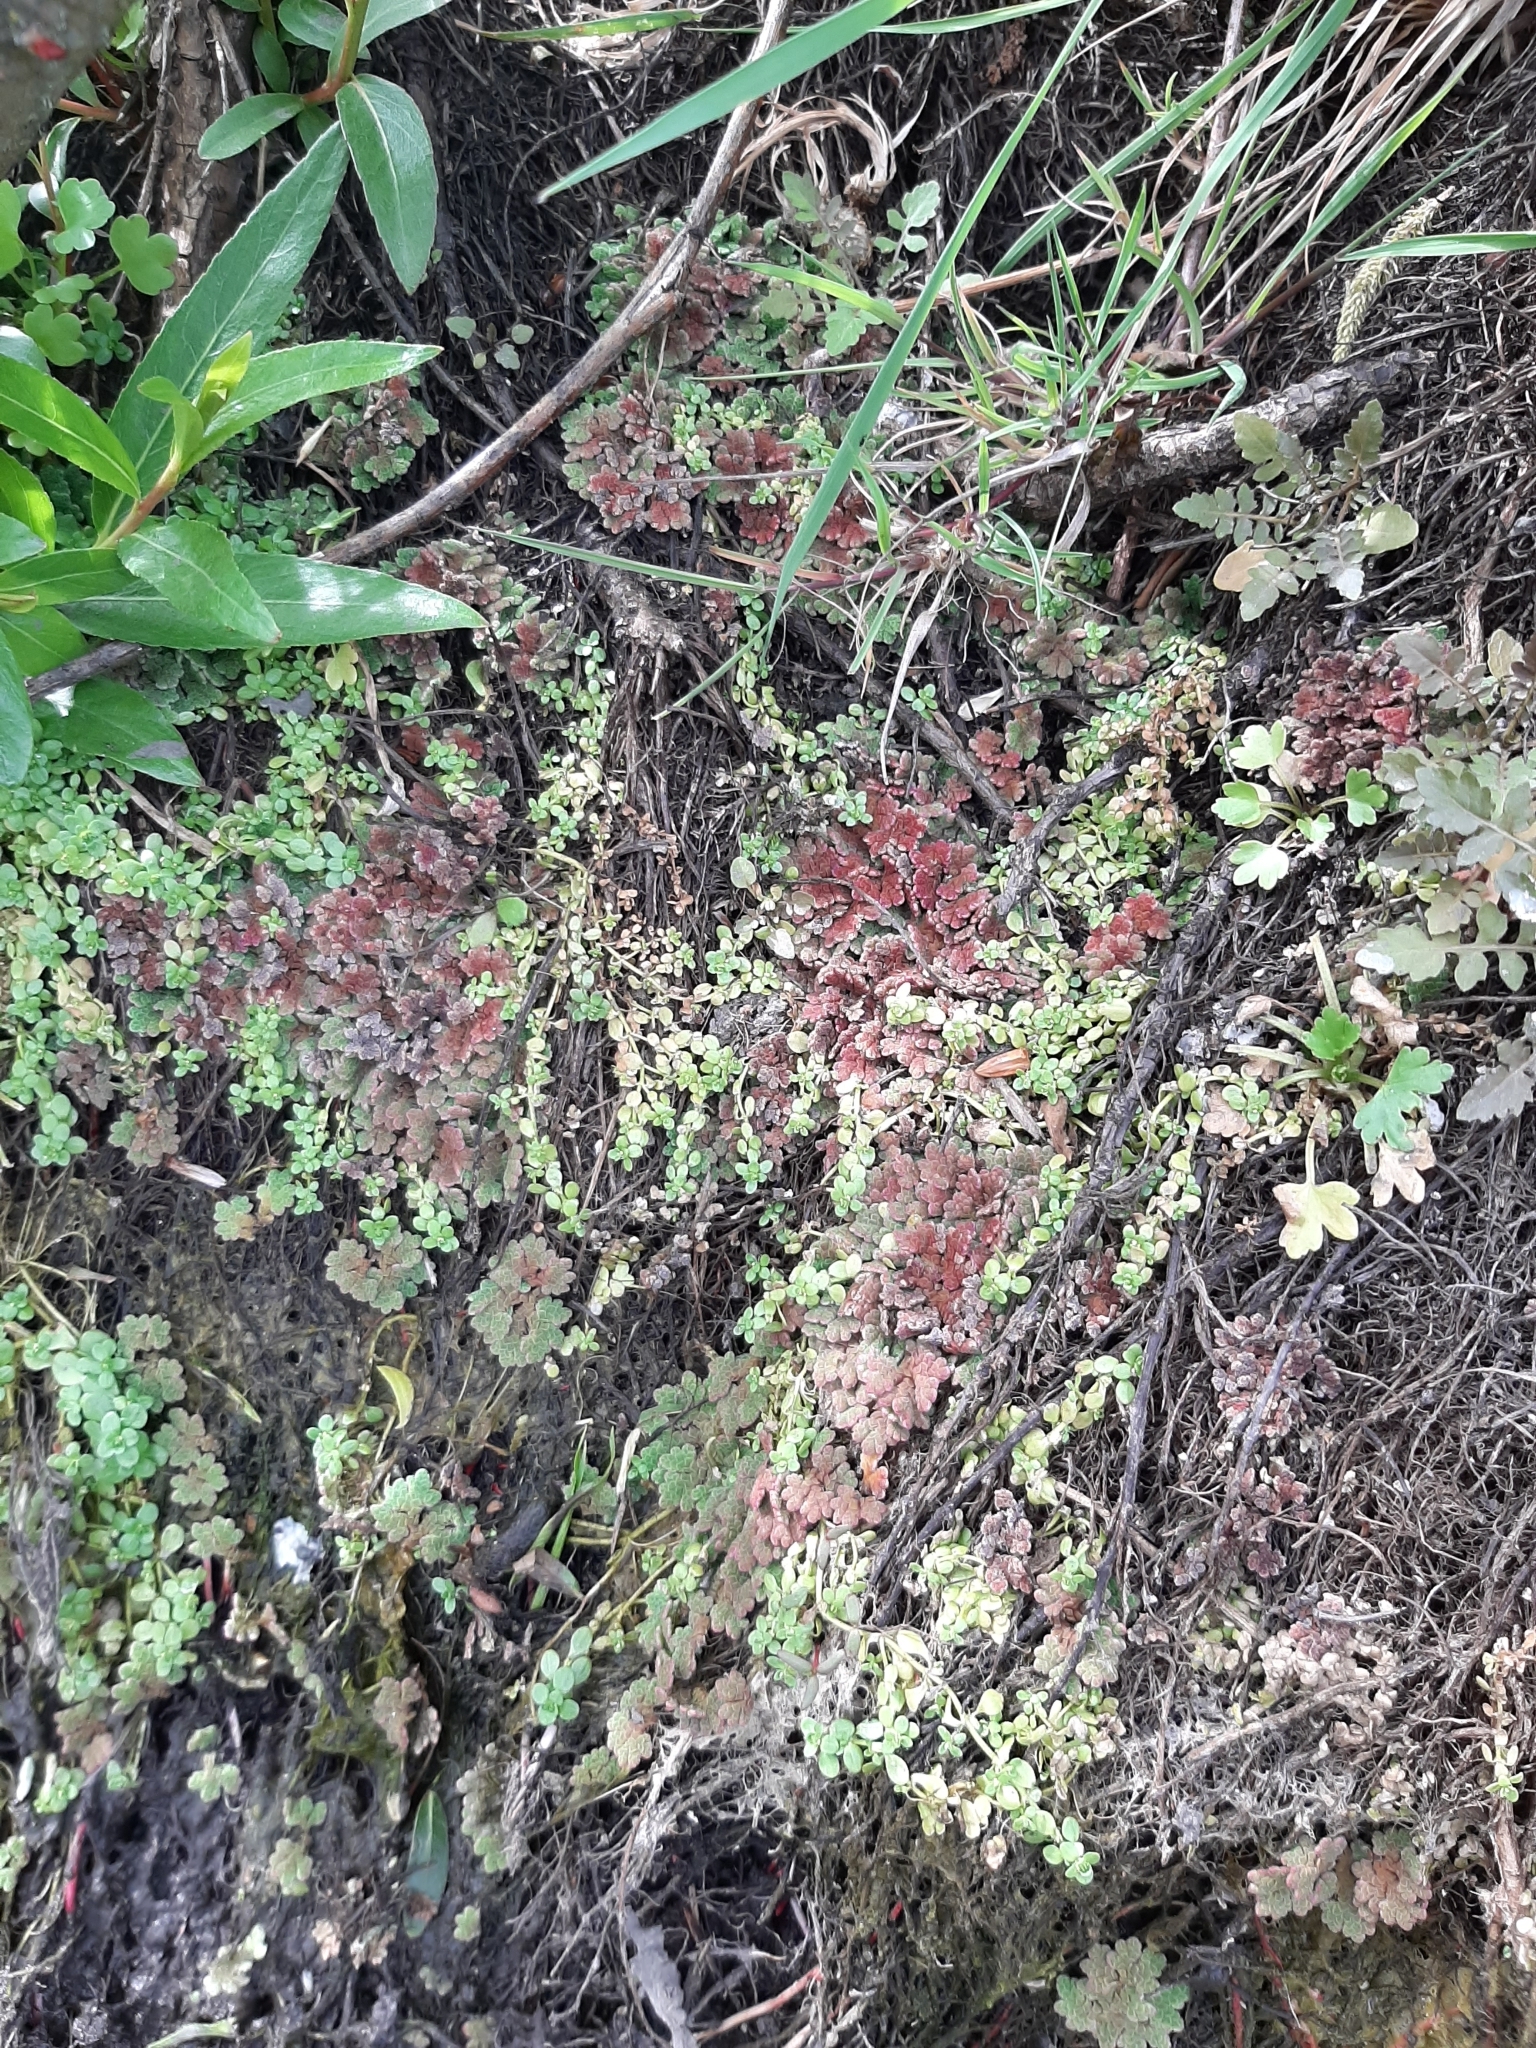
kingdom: Plantae
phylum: Tracheophyta
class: Polypodiopsida
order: Salviniales
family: Salviniaceae
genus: Azolla
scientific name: Azolla rubra
